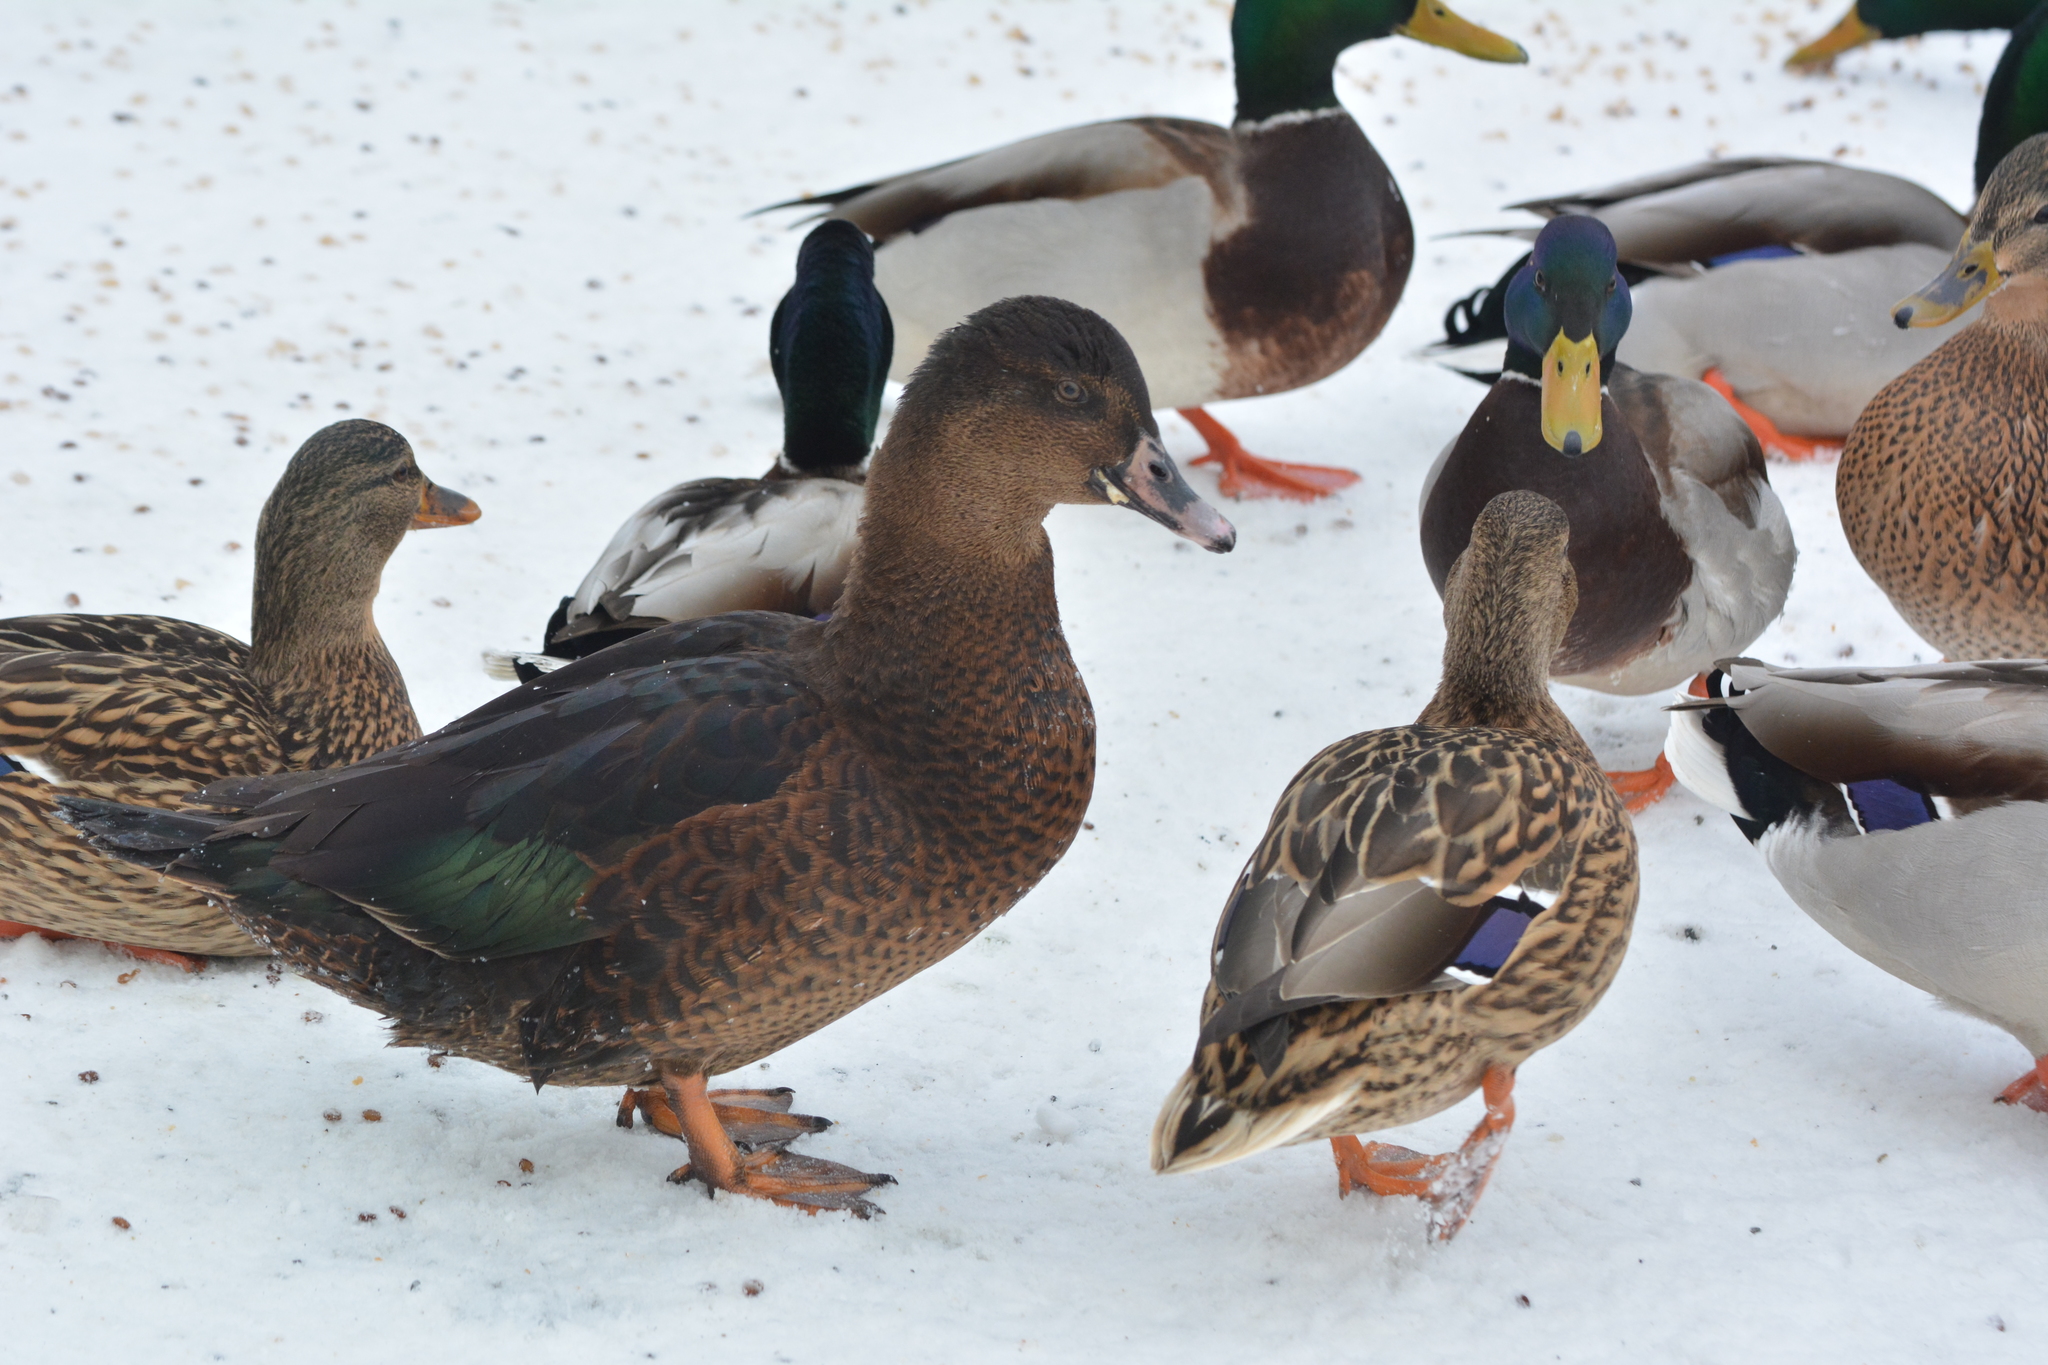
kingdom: Animalia
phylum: Chordata
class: Aves
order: Anseriformes
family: Anatidae
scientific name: Anatidae
